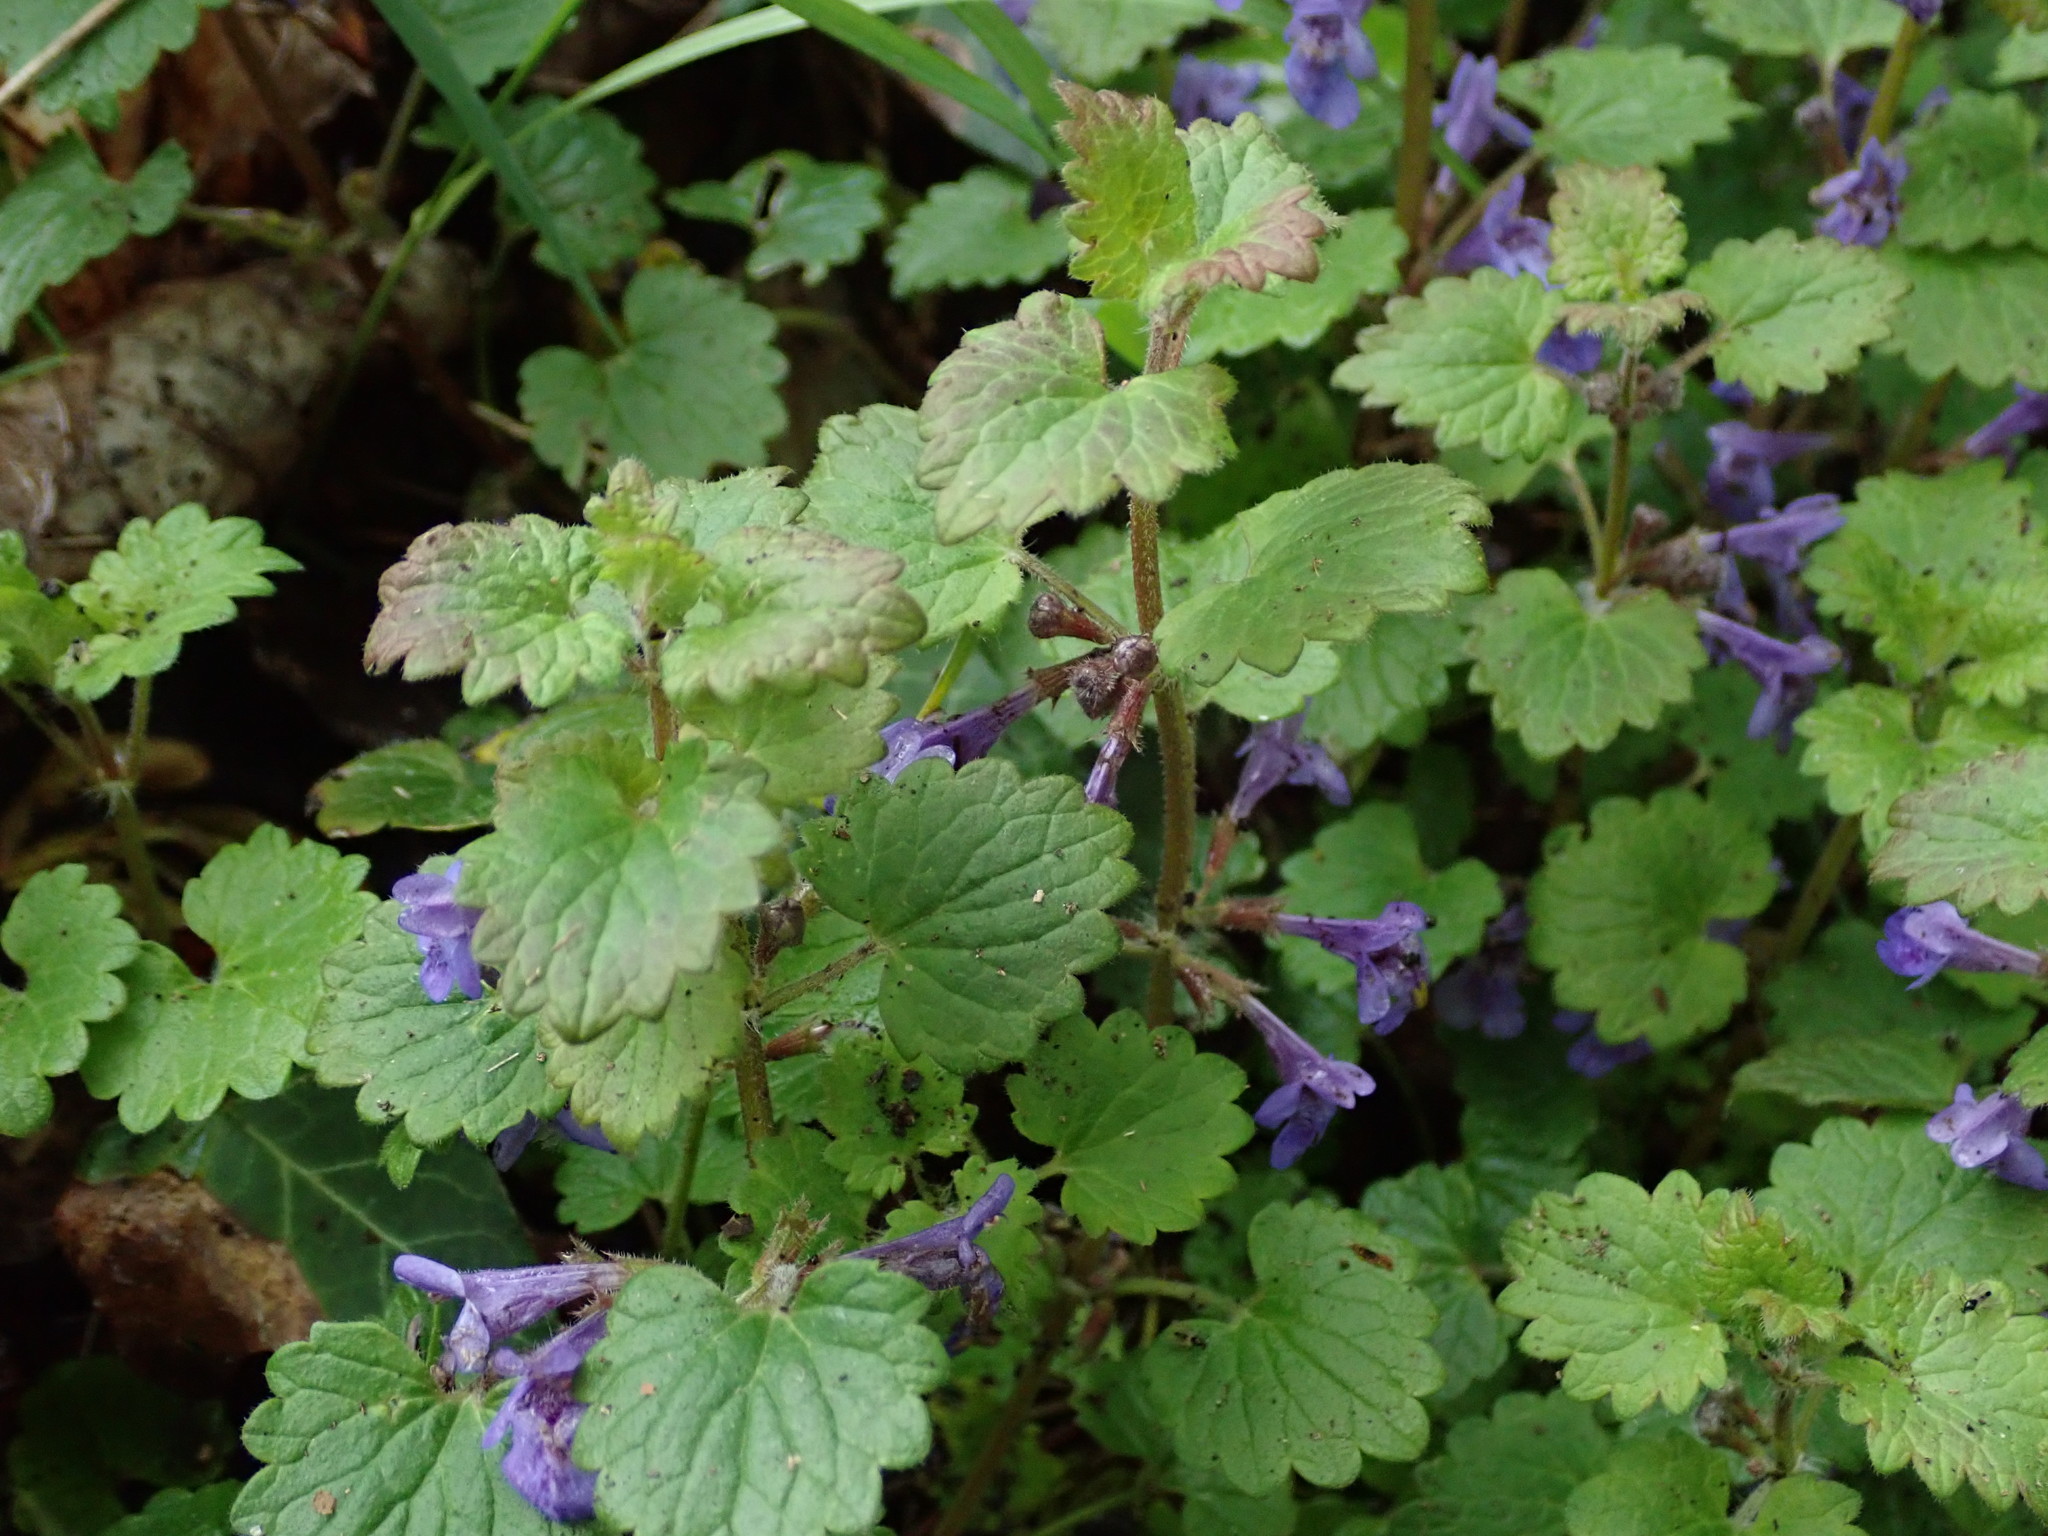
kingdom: Plantae
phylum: Tracheophyta
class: Magnoliopsida
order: Lamiales
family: Lamiaceae
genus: Glechoma
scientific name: Glechoma hederacea
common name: Ground ivy
